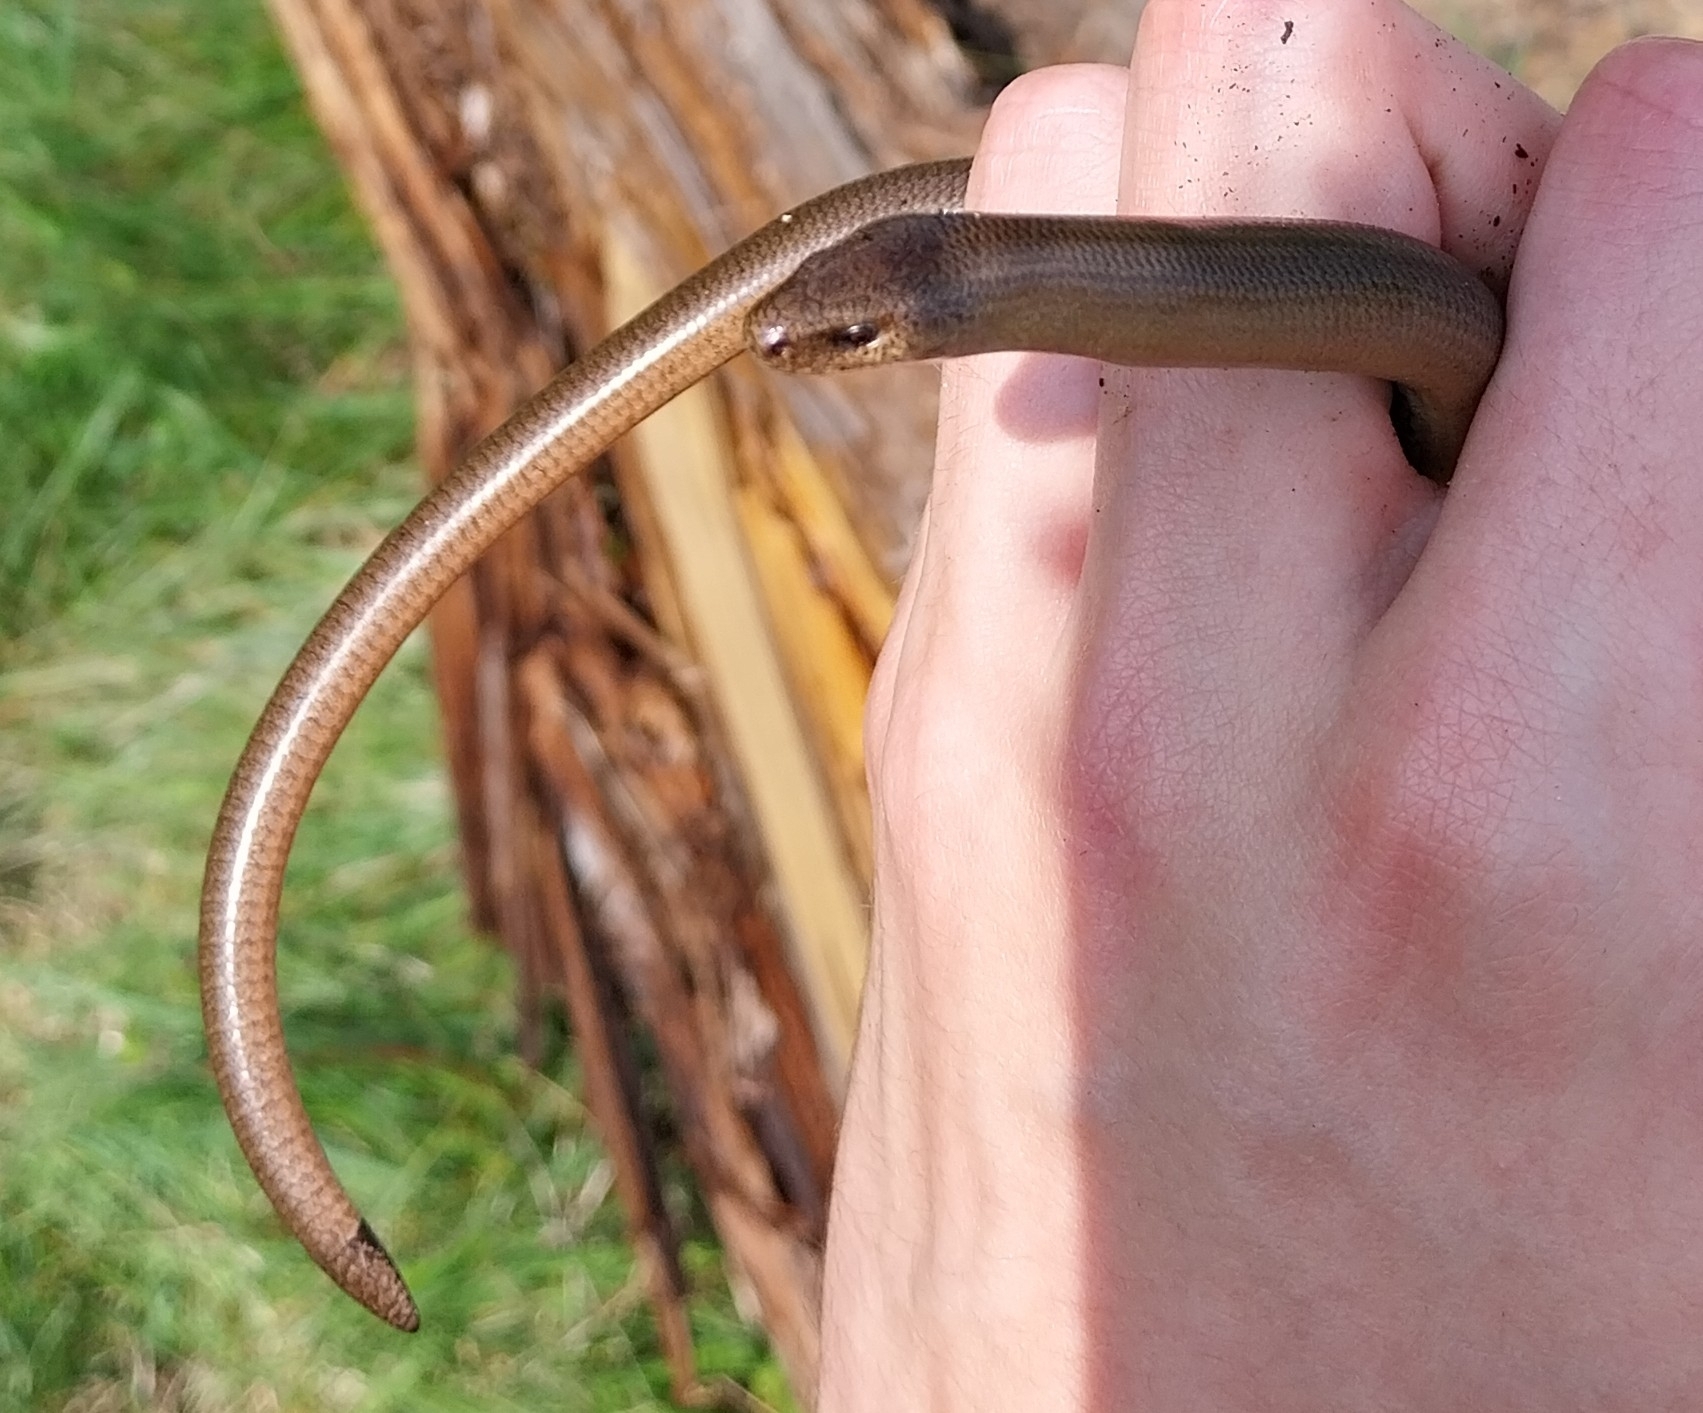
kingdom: Animalia
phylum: Chordata
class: Squamata
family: Anguidae
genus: Anguis
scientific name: Anguis veronensis
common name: Italian slow worm
